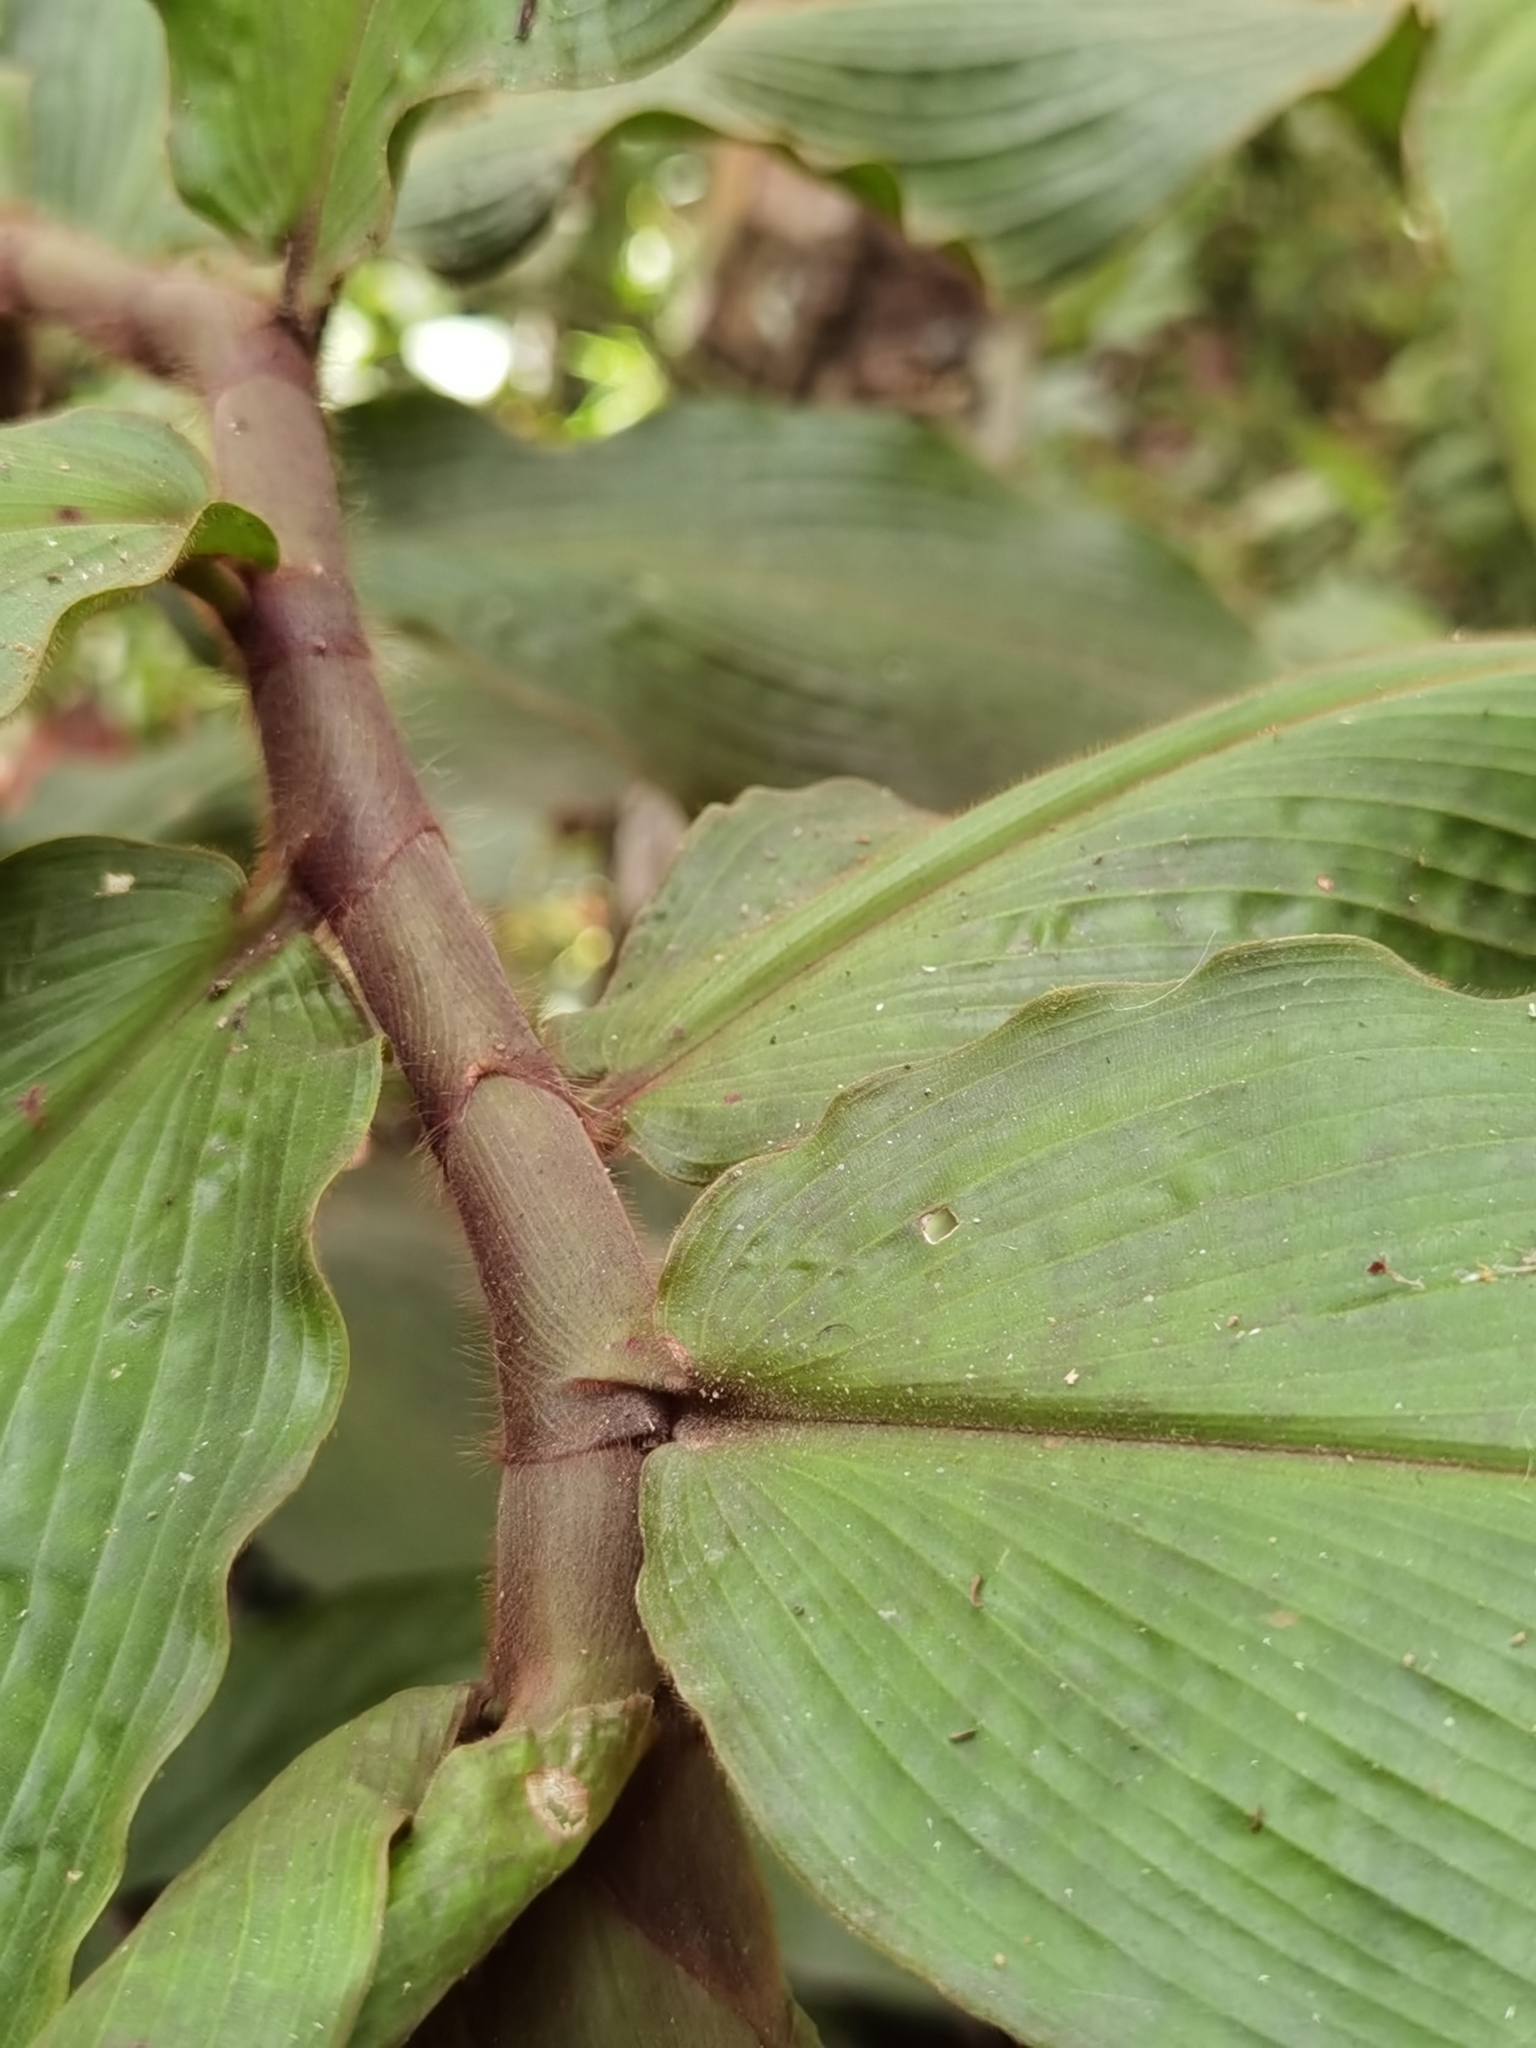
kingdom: Plantae
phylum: Tracheophyta
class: Liliopsida
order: Zingiberales
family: Costaceae
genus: Costus
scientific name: Costus bracteatus
